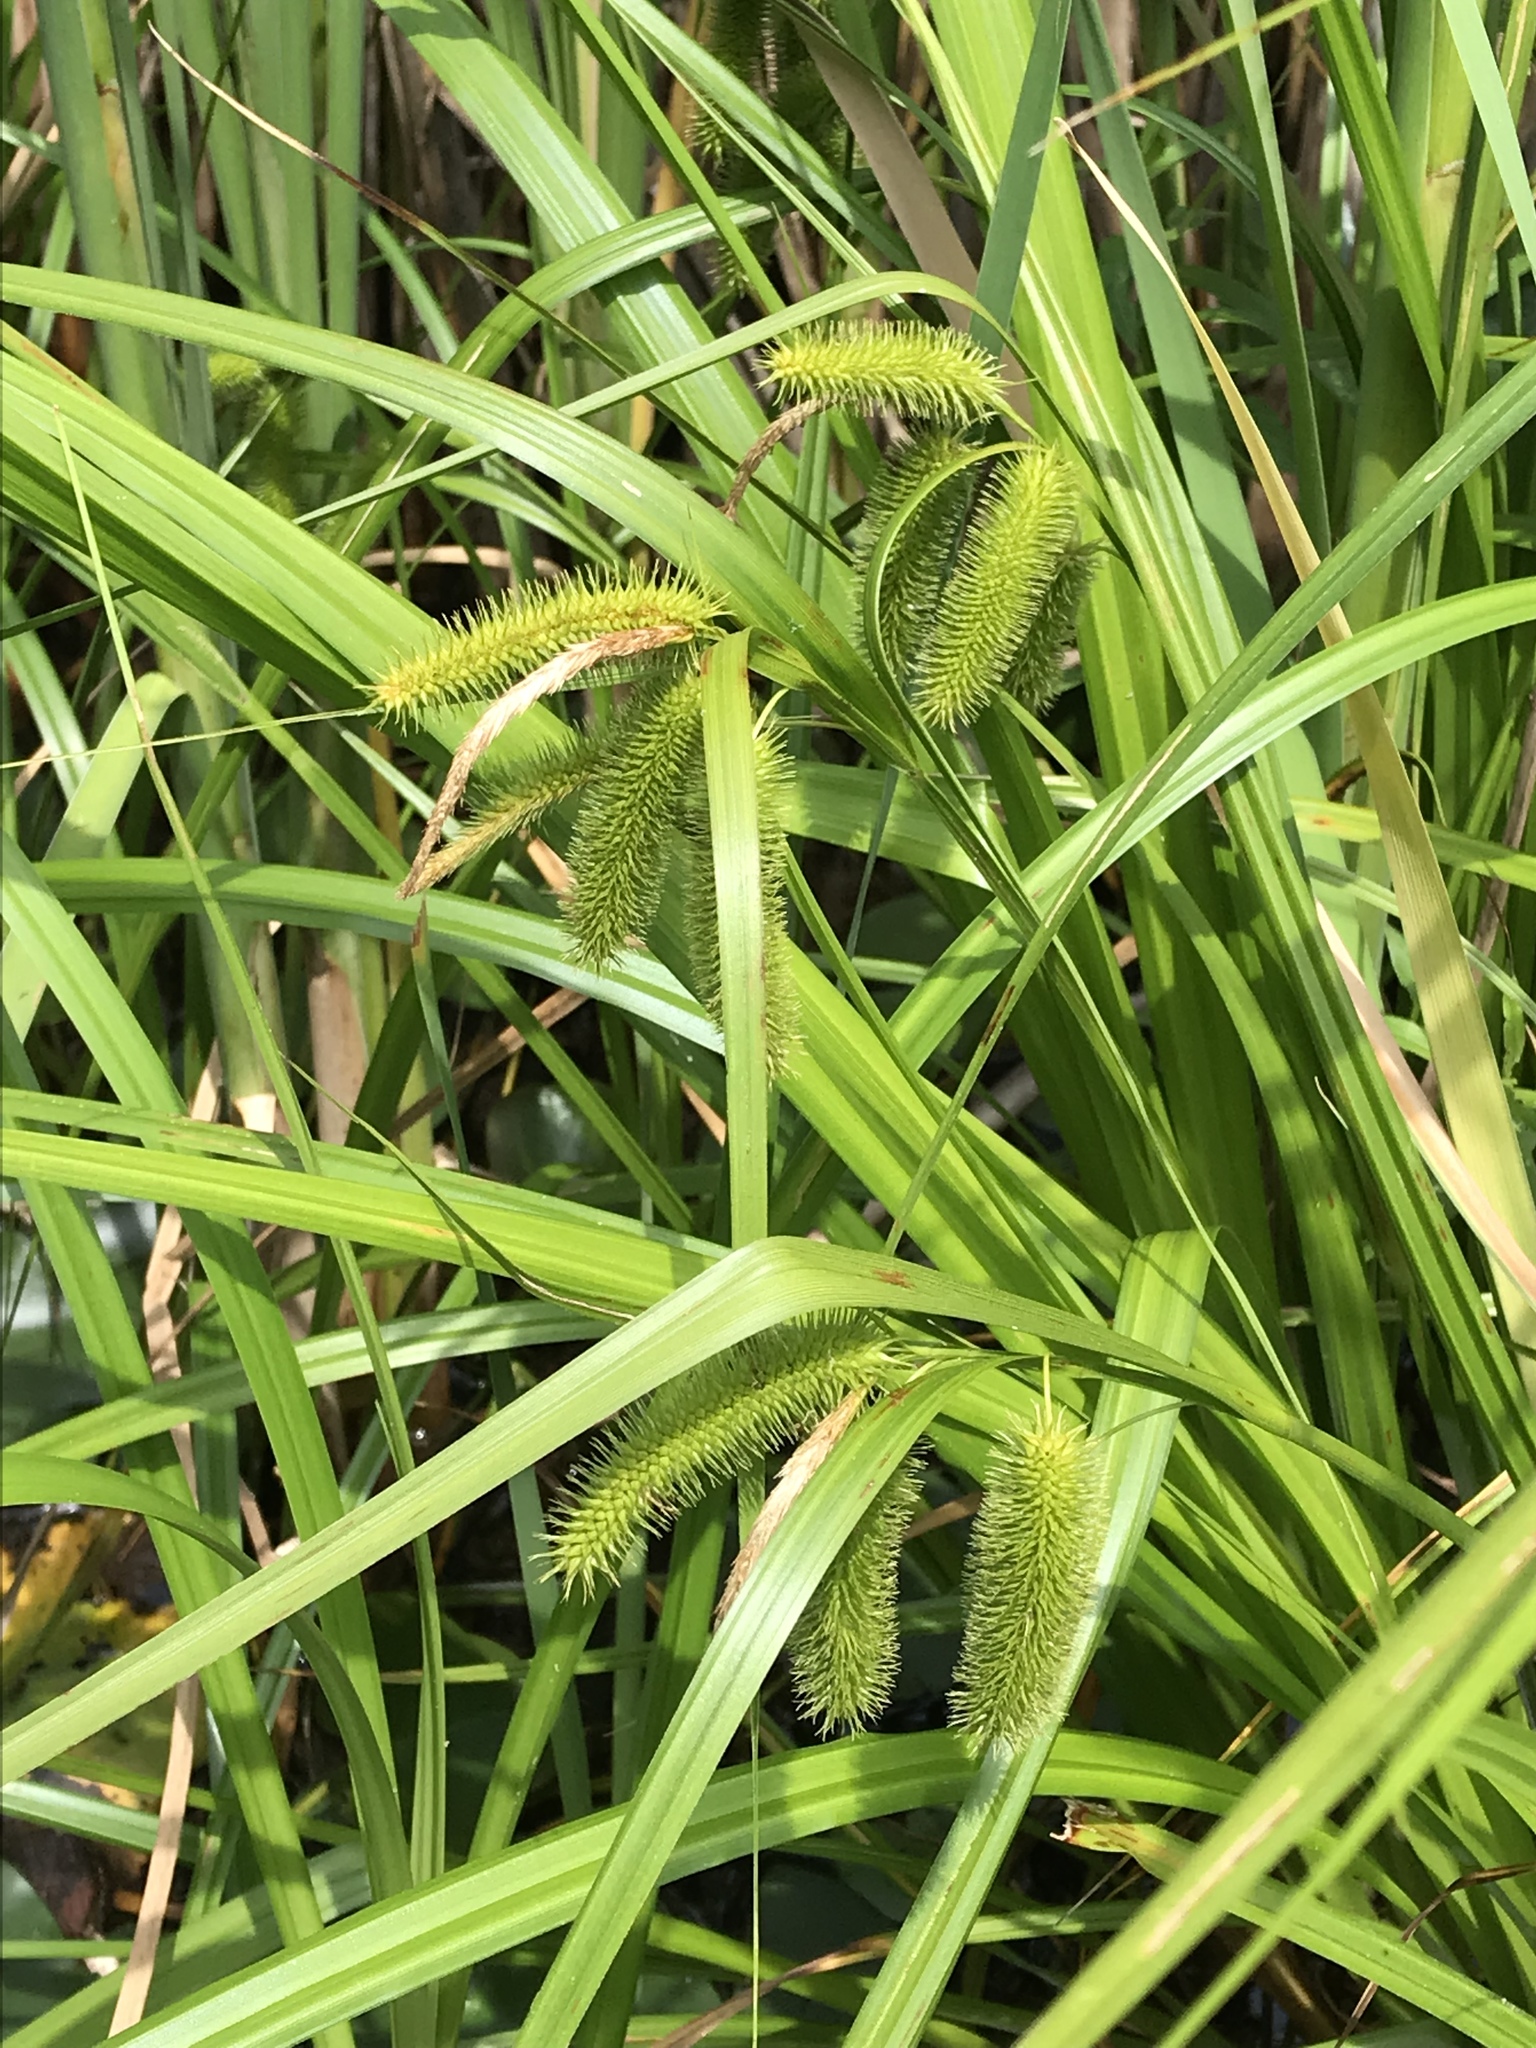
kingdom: Plantae
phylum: Tracheophyta
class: Liliopsida
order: Poales
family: Cyperaceae
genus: Carex
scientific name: Carex comosa
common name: Bristly sedge
